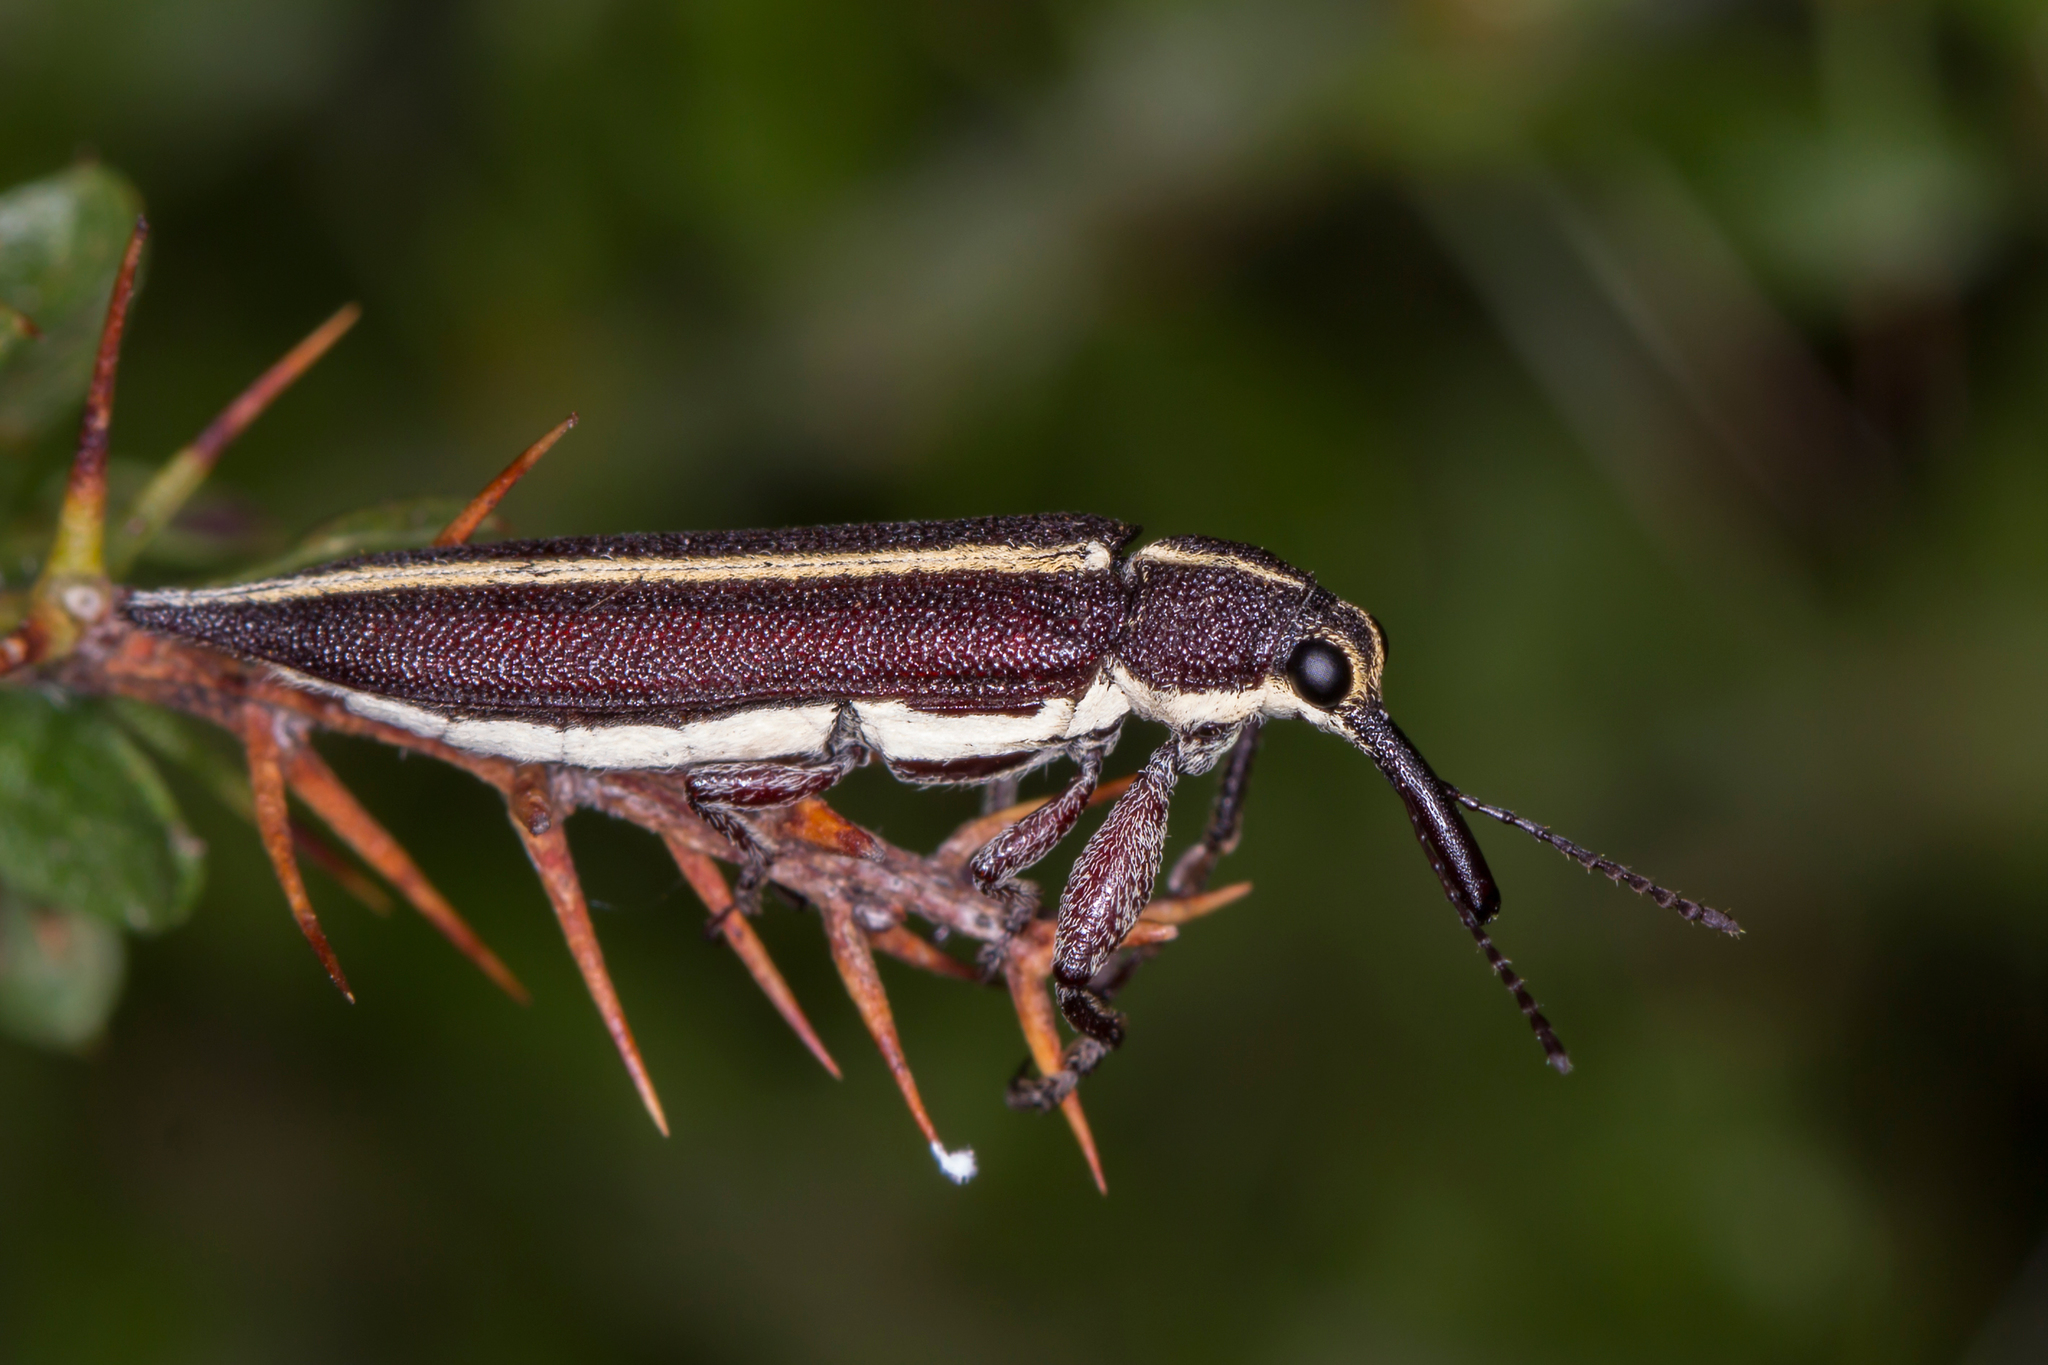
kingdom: Animalia
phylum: Arthropoda
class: Insecta
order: Coleoptera
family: Belidae
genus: Rhinotia
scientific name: Rhinotia suturalis
